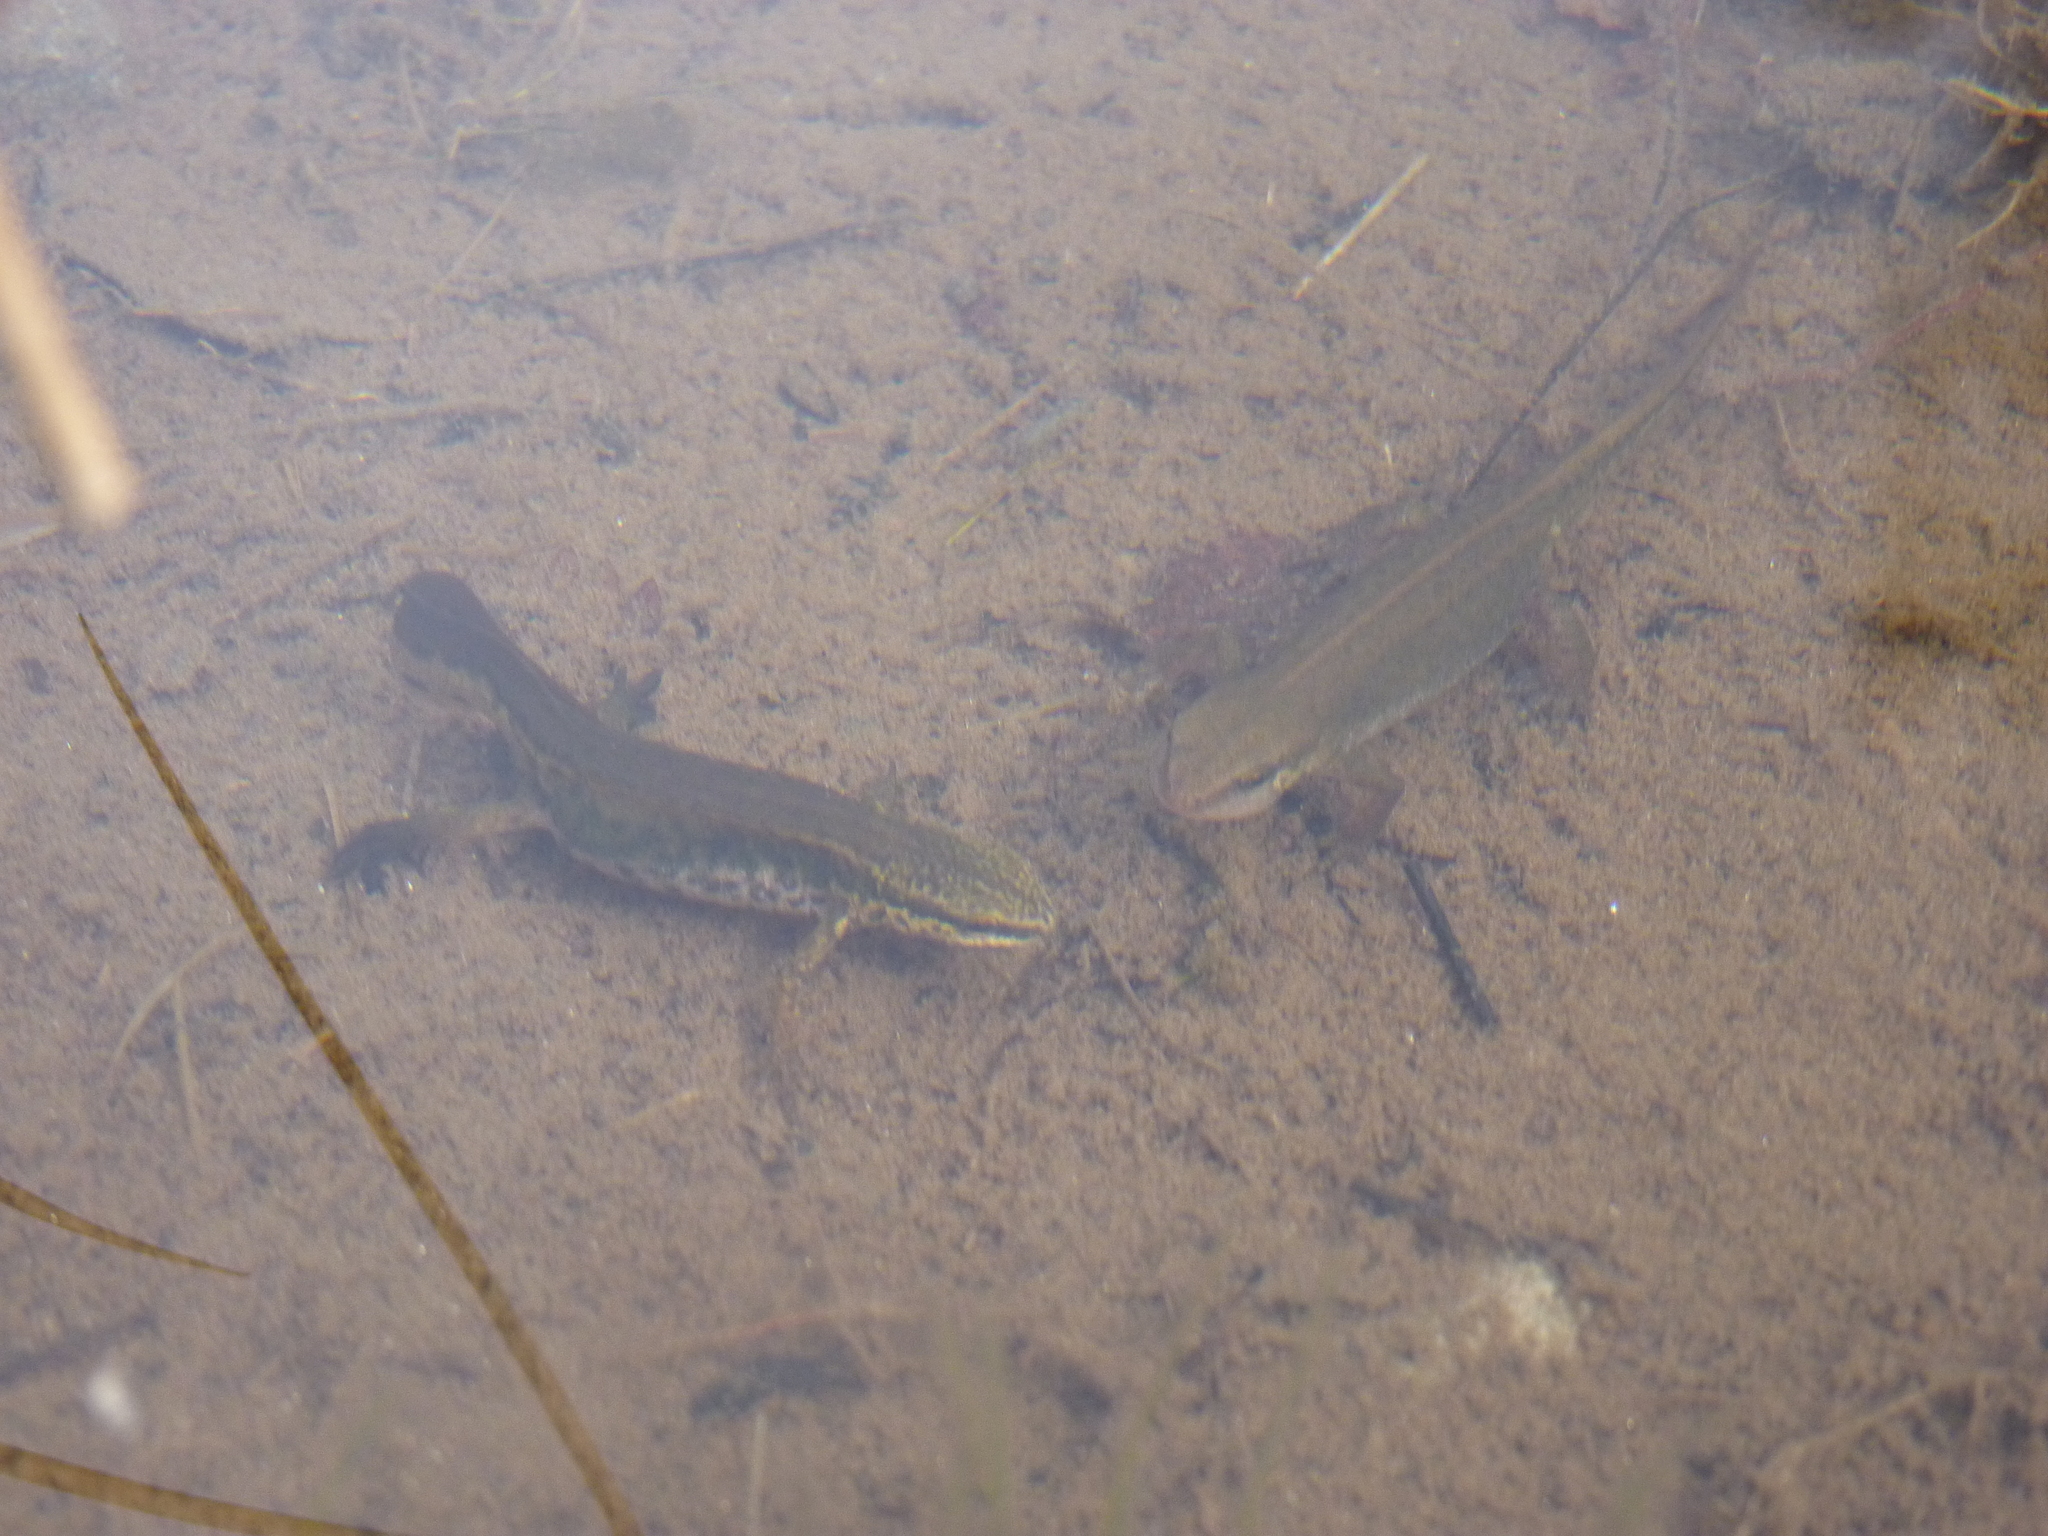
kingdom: Animalia
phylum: Chordata
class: Amphibia
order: Caudata
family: Salamandridae
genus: Lissotriton
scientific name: Lissotriton helveticus
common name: Palmate newt
